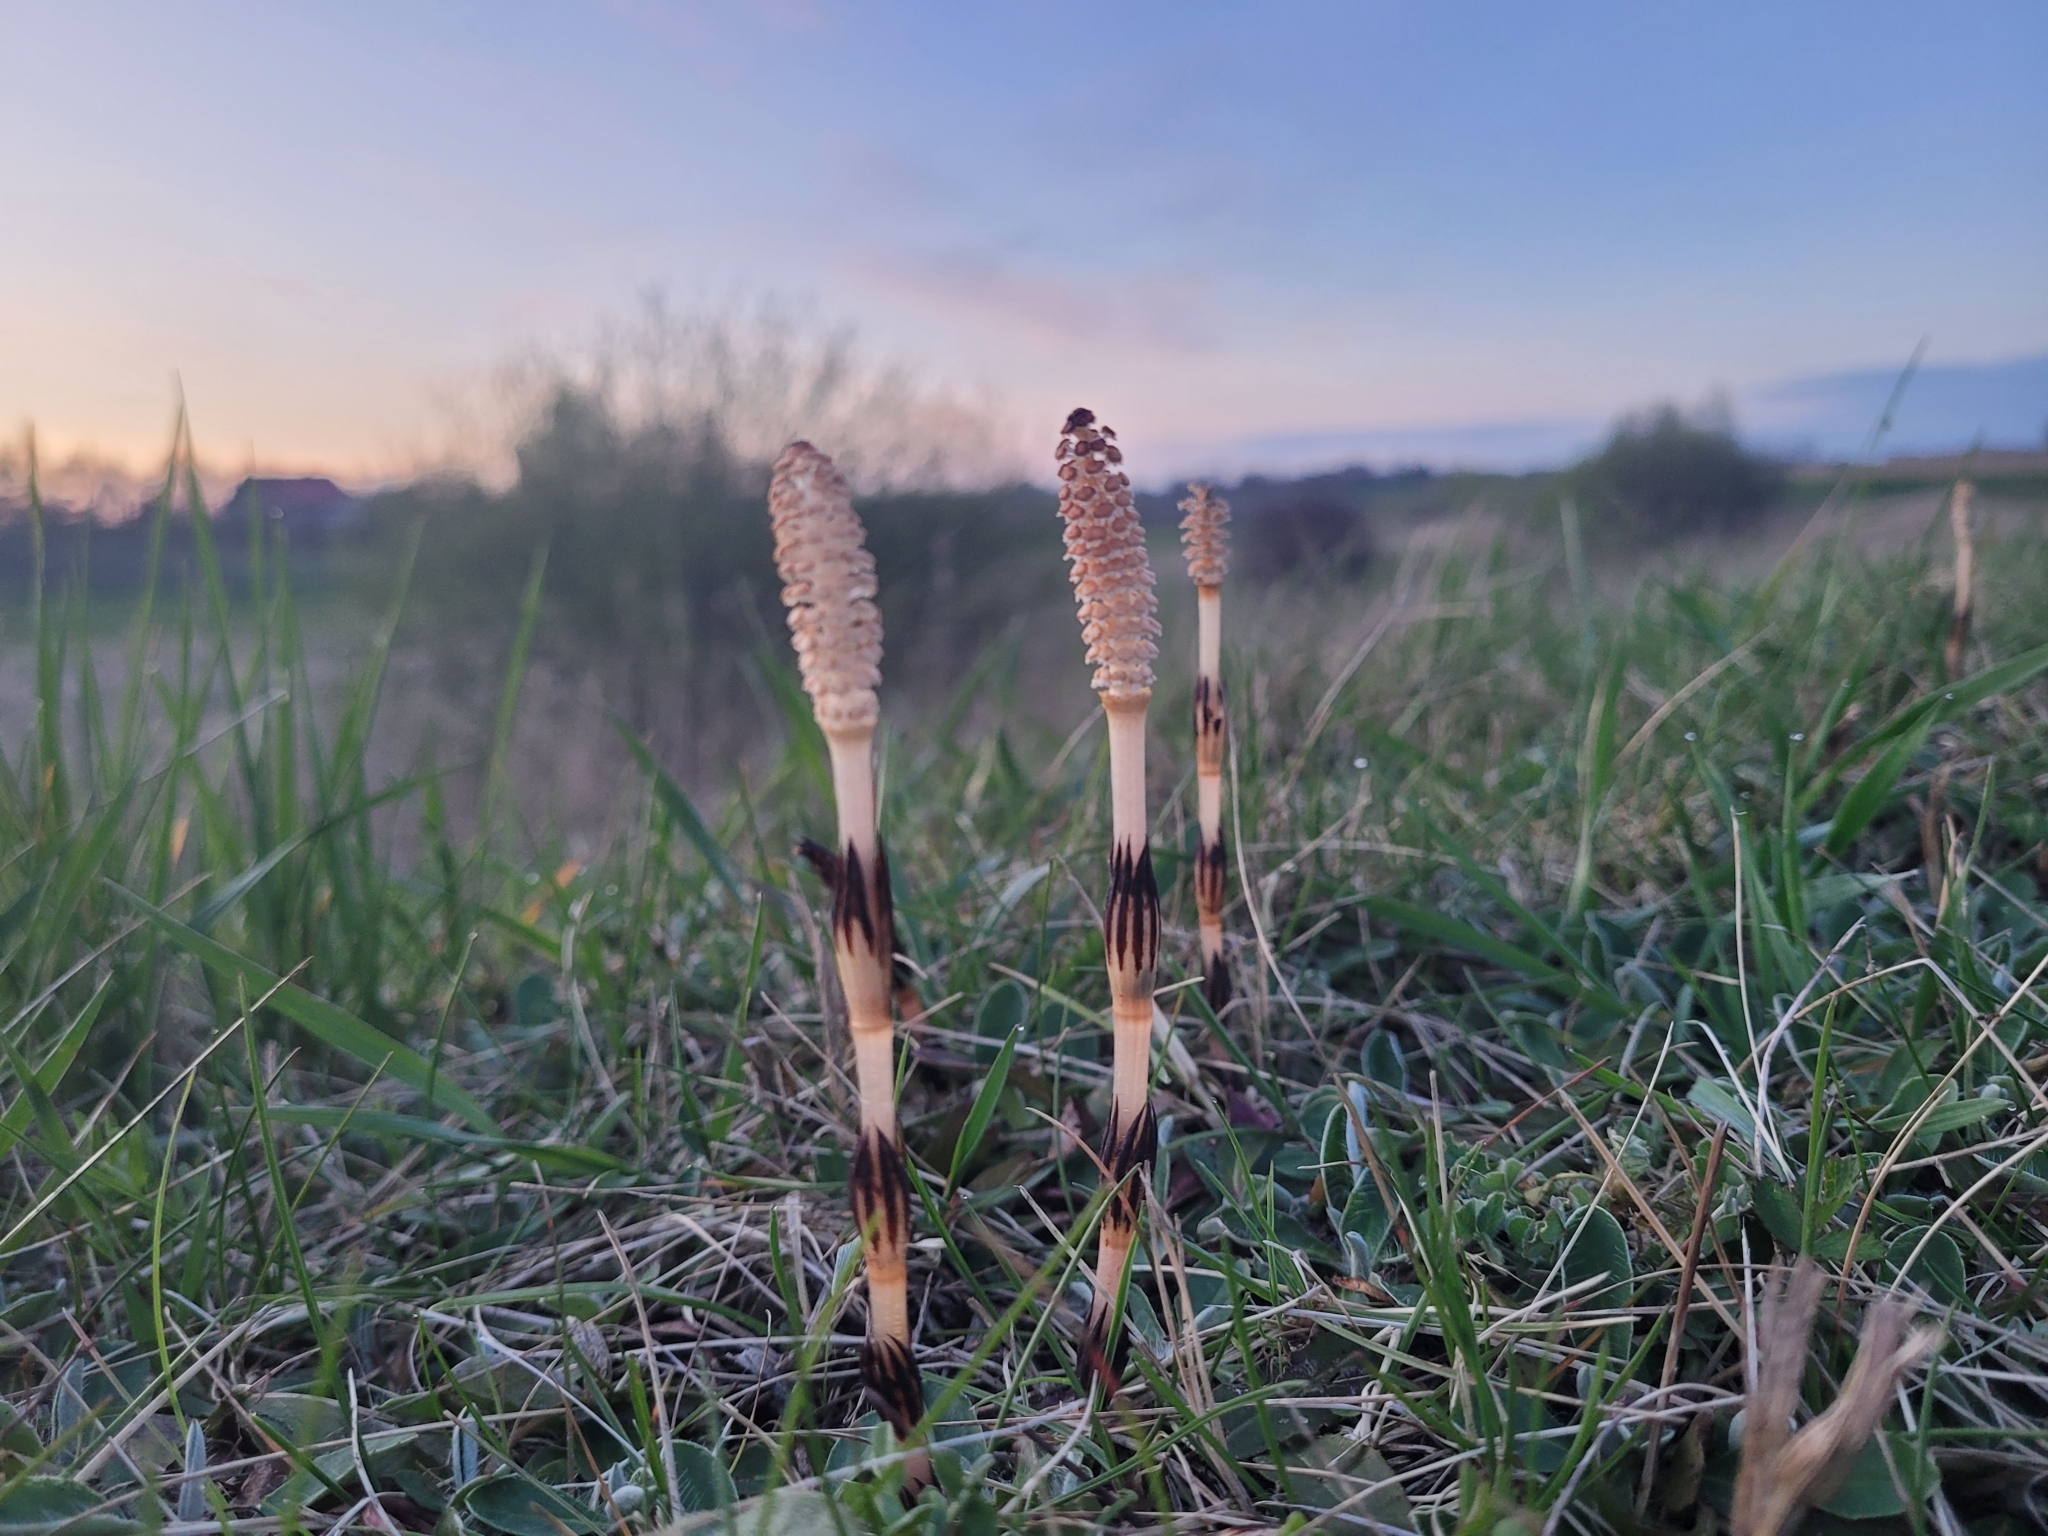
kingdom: Plantae
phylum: Tracheophyta
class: Polypodiopsida
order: Equisetales
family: Equisetaceae
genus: Equisetum
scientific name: Equisetum arvense
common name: Field horsetail
